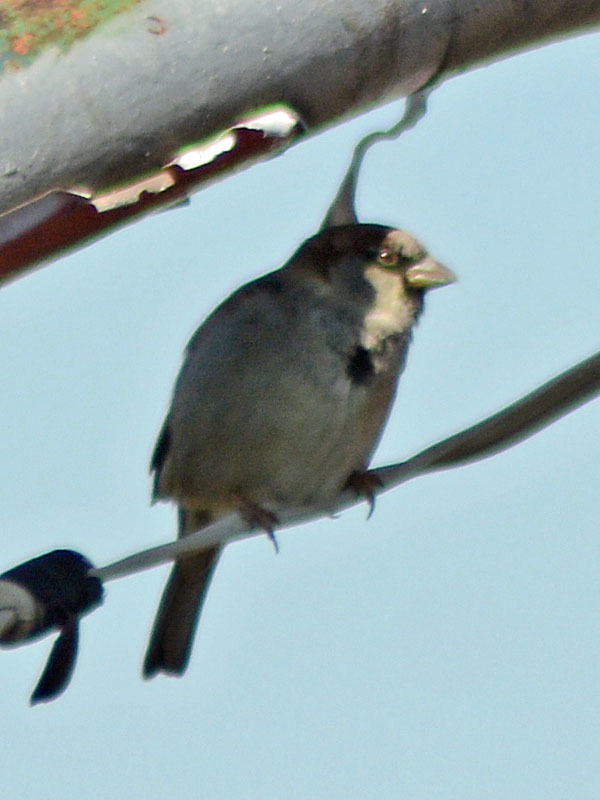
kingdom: Animalia
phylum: Chordata
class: Aves
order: Passeriformes
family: Passeridae
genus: Passer
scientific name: Passer domesticus
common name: House sparrow
